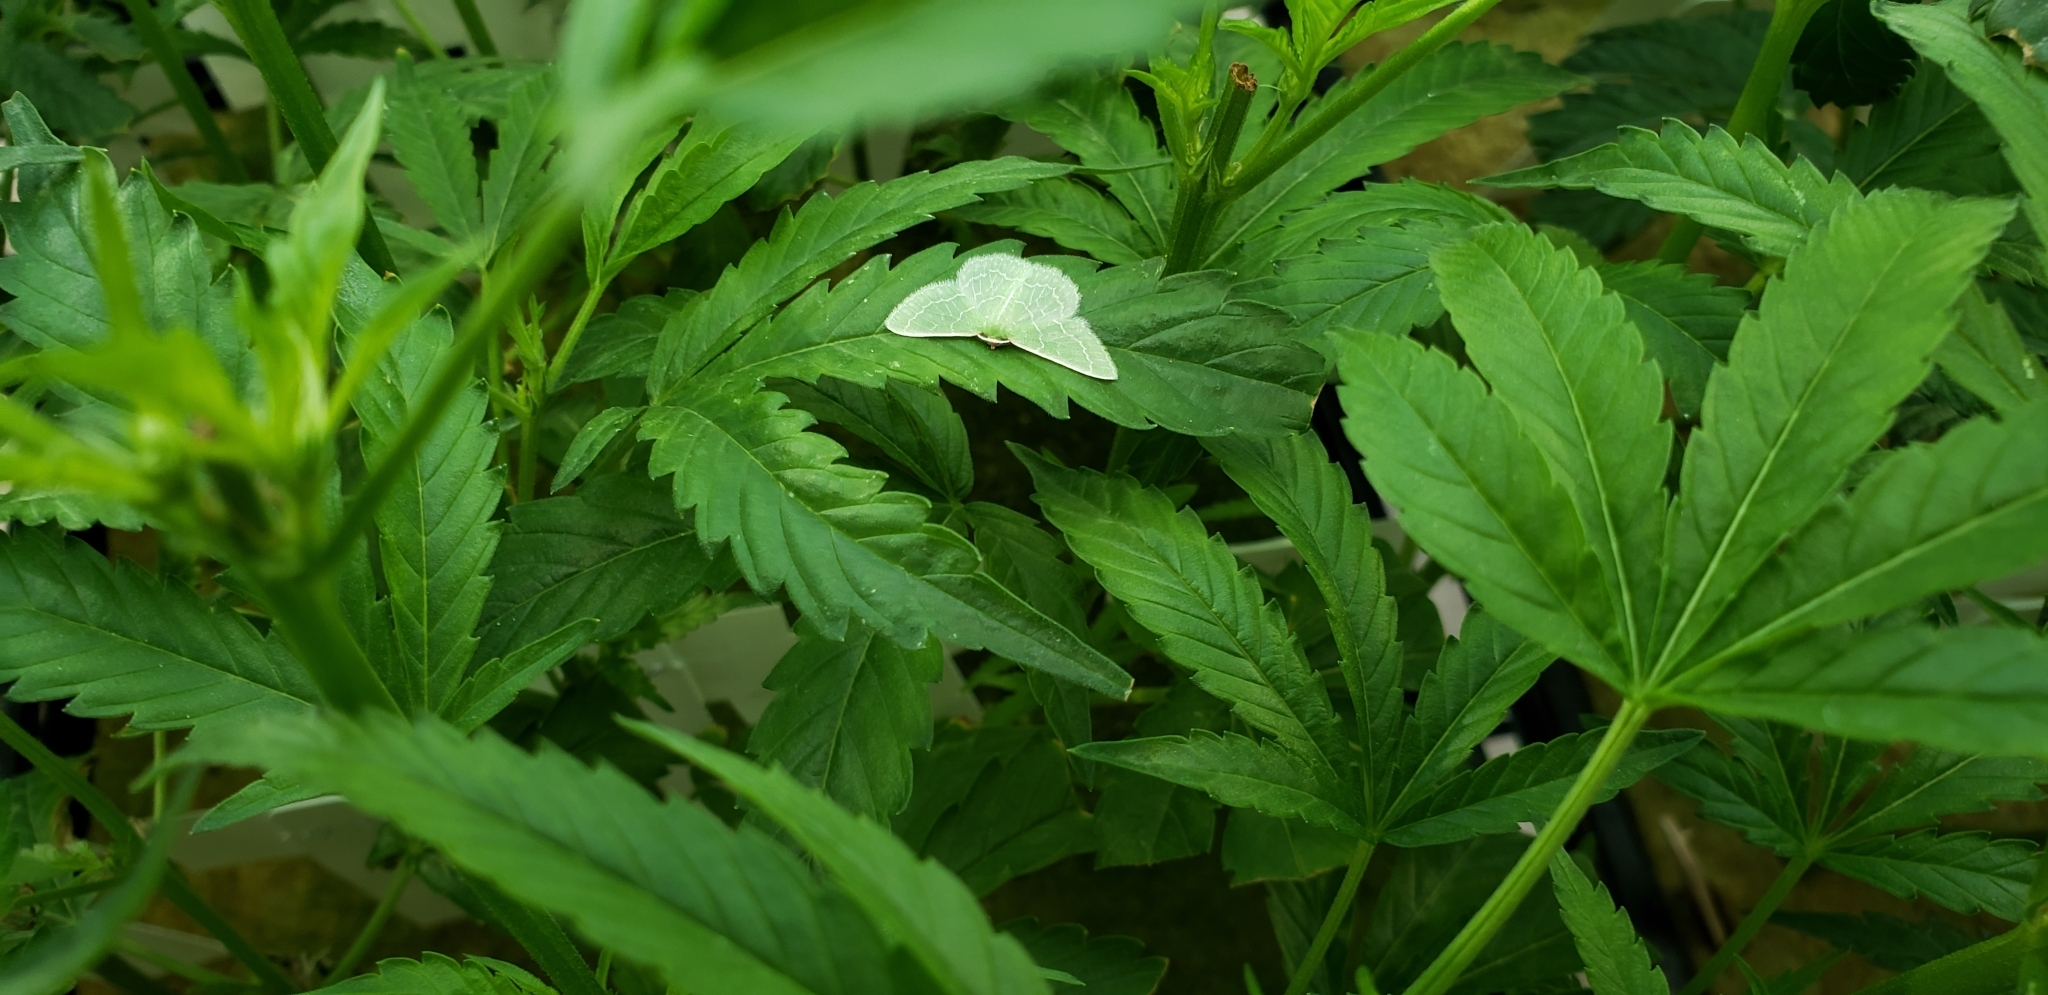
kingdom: Animalia
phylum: Arthropoda
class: Insecta
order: Lepidoptera
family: Geometridae
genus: Synchlora
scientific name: Synchlora aerata
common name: Wavy-lined emerald
